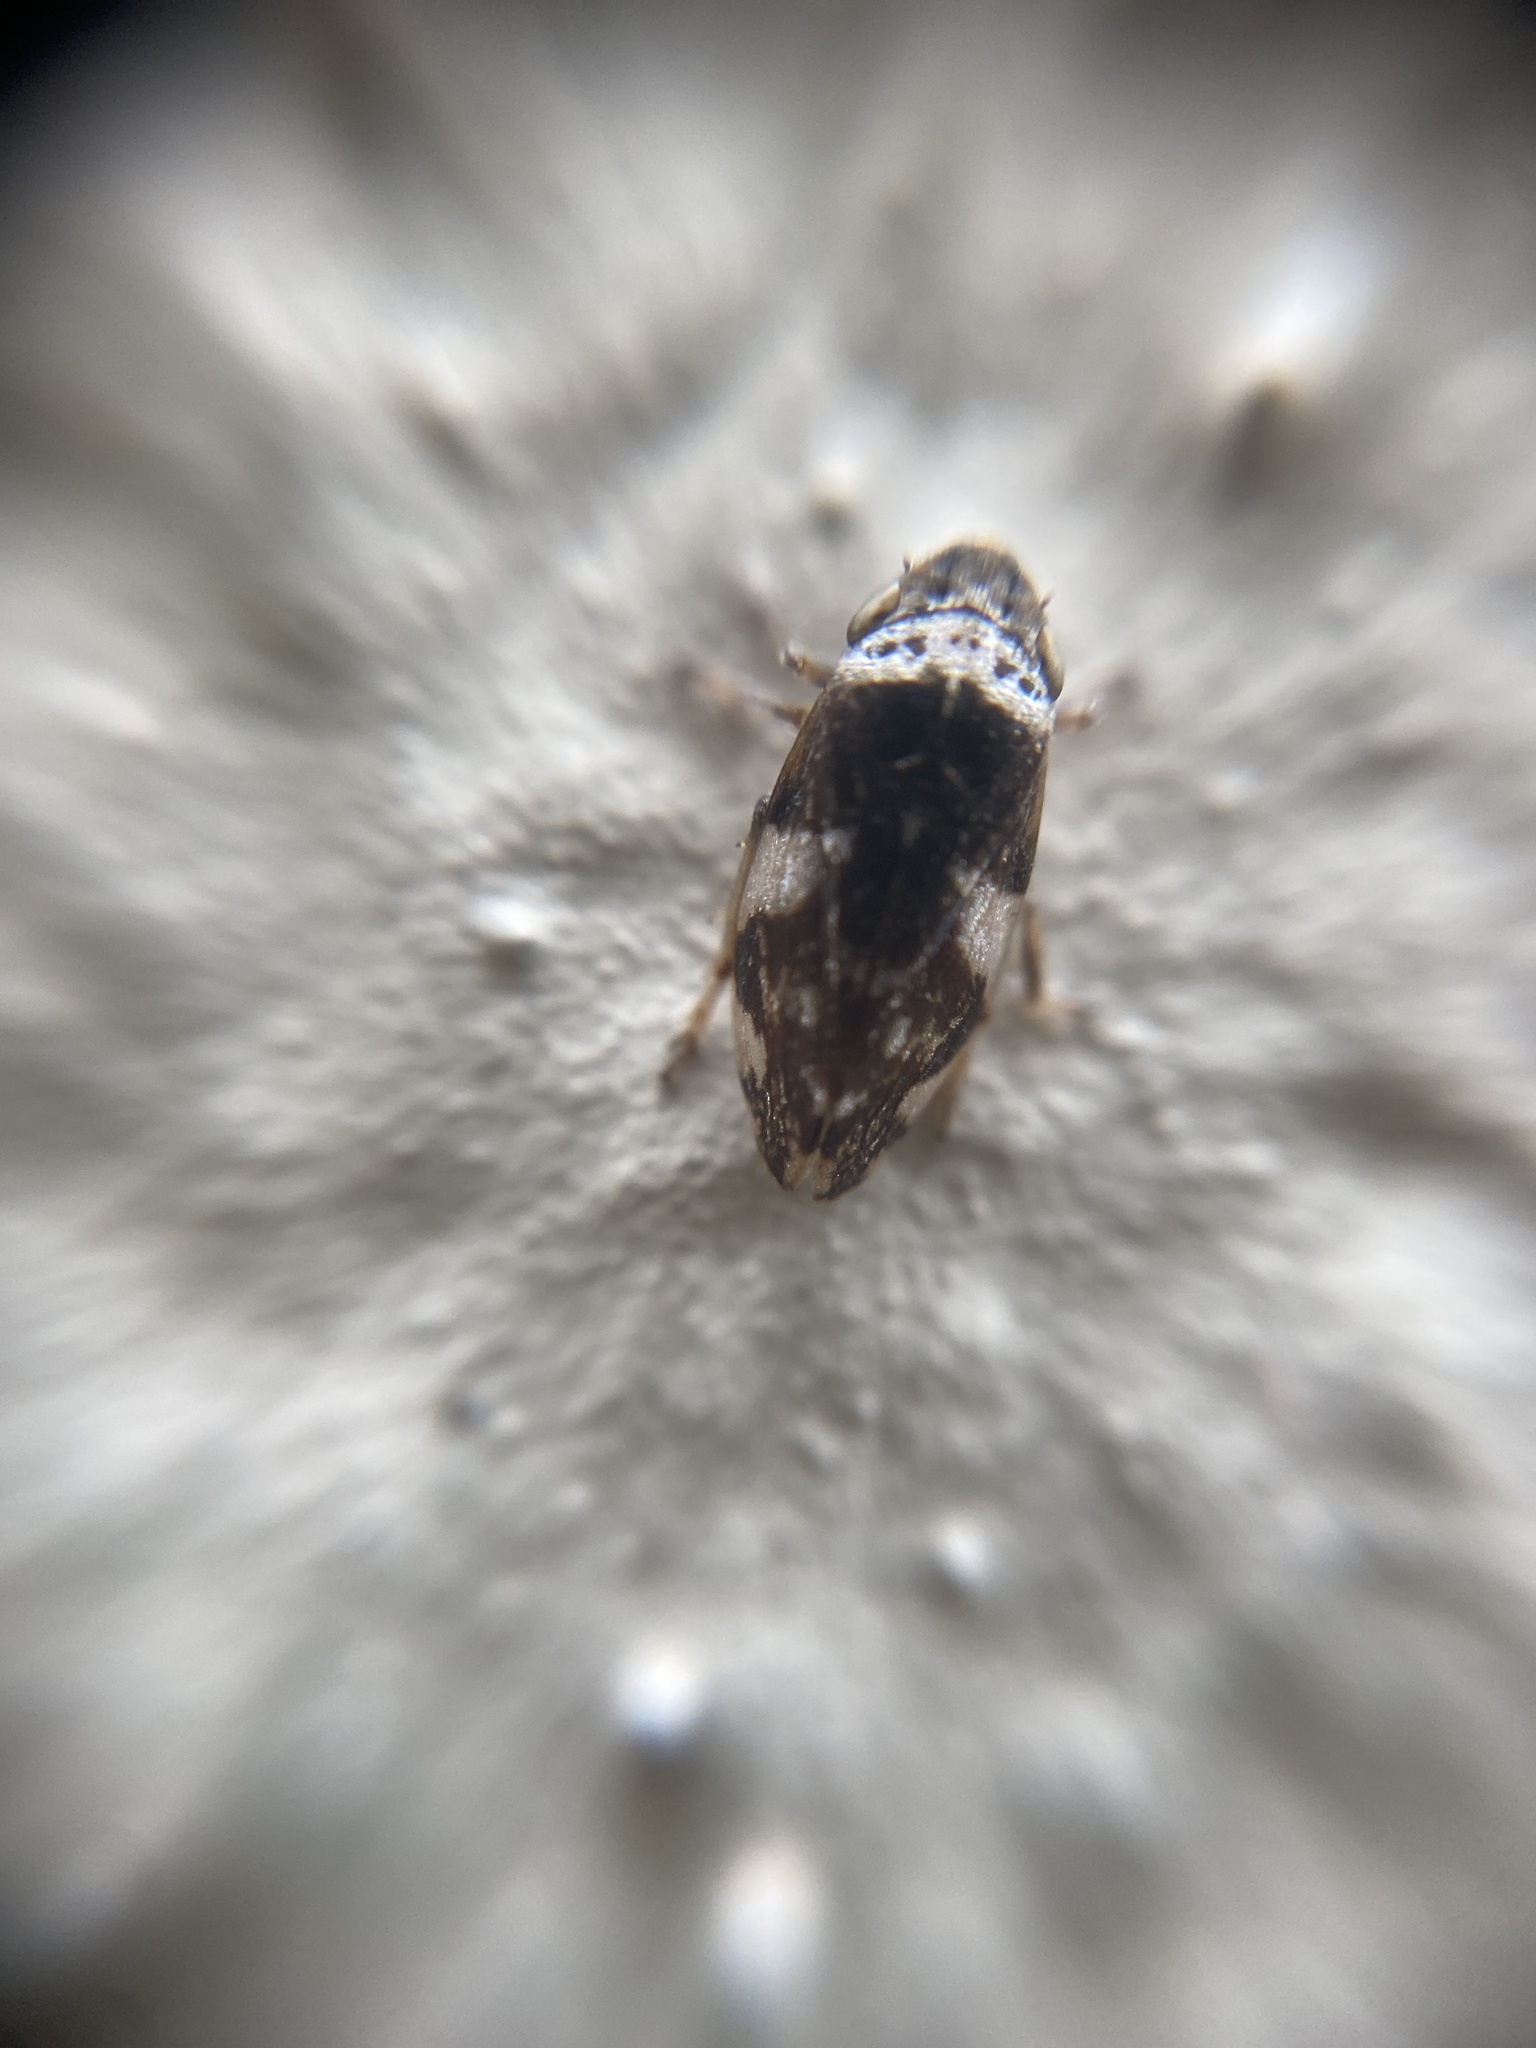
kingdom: Animalia
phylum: Arthropoda
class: Insecta
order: Hemiptera
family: Aphrophoridae
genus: Philaenus
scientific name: Philaenus spumarius
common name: Meadow spittlebug
